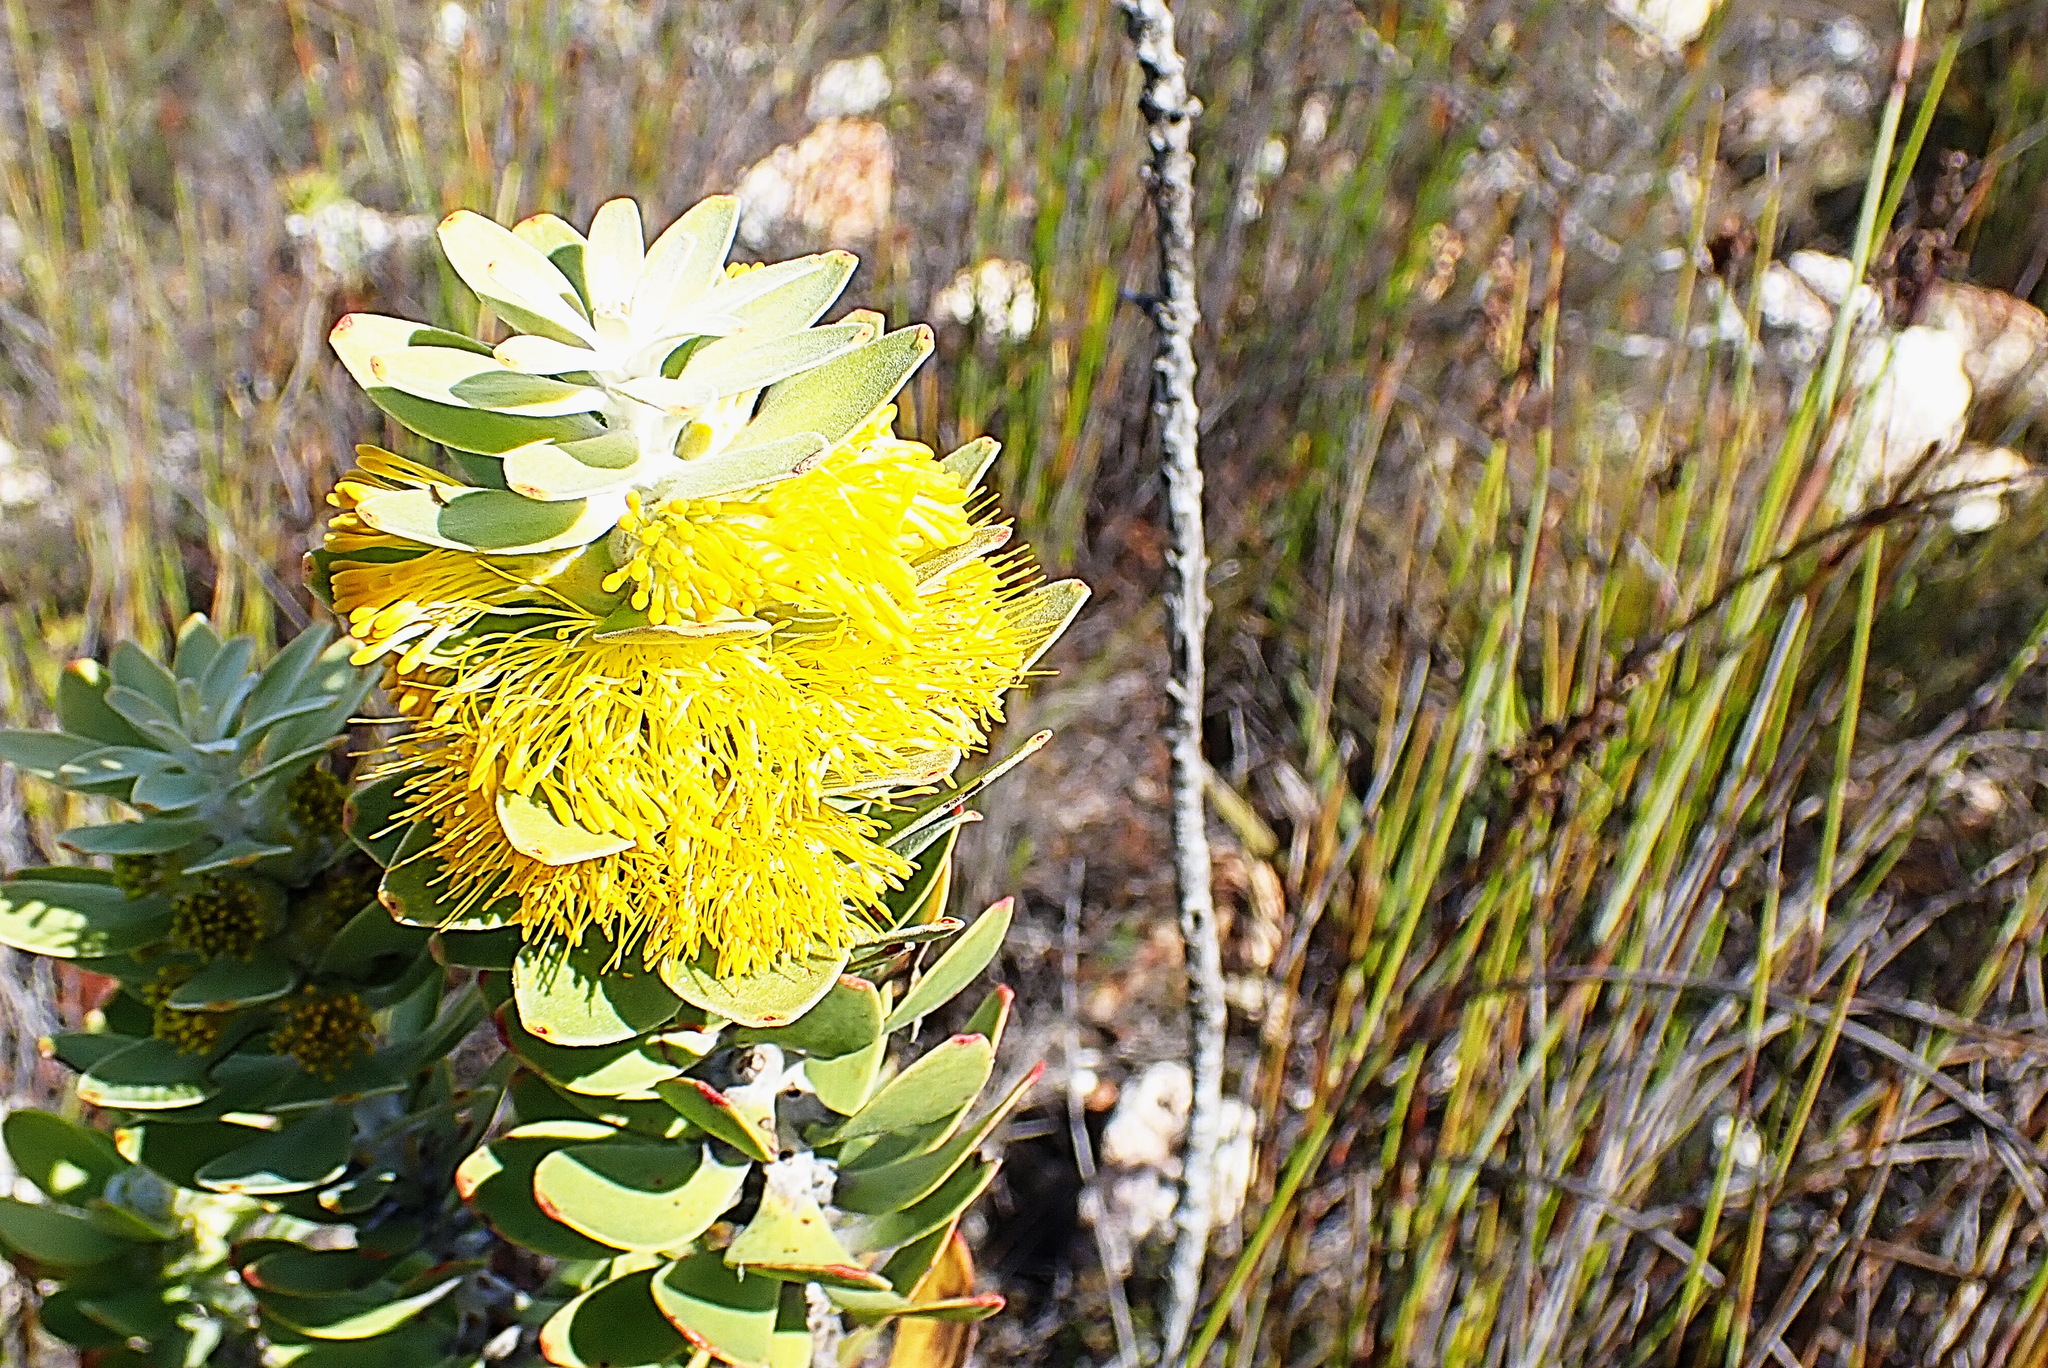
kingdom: Plantae
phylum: Tracheophyta
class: Magnoliopsida
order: Proteales
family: Proteaceae
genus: Mimetes
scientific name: Mimetes chrysanthus
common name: Golden pagoda
